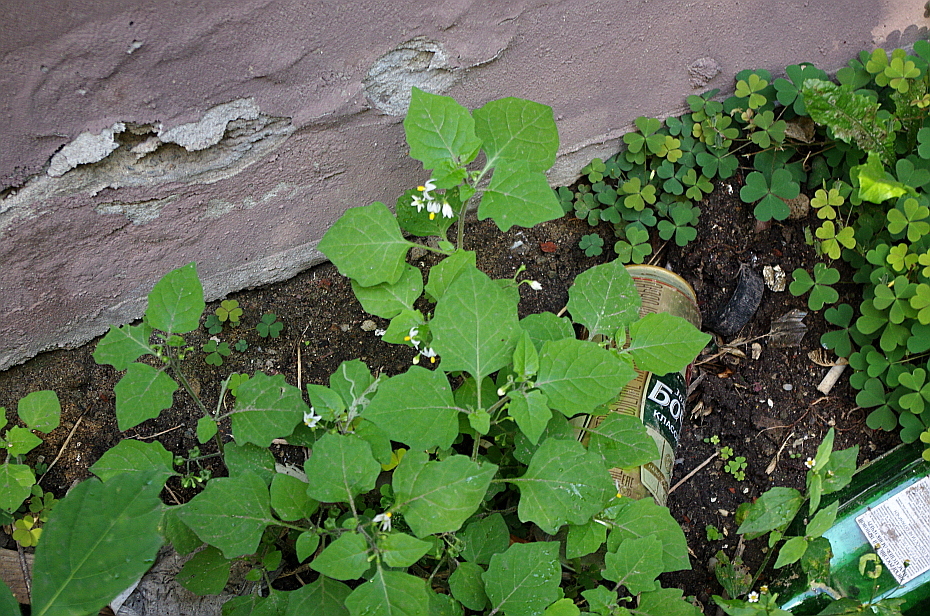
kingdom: Plantae
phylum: Tracheophyta
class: Magnoliopsida
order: Solanales
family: Solanaceae
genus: Solanum
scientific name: Solanum nigrum
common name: Black nightshade
